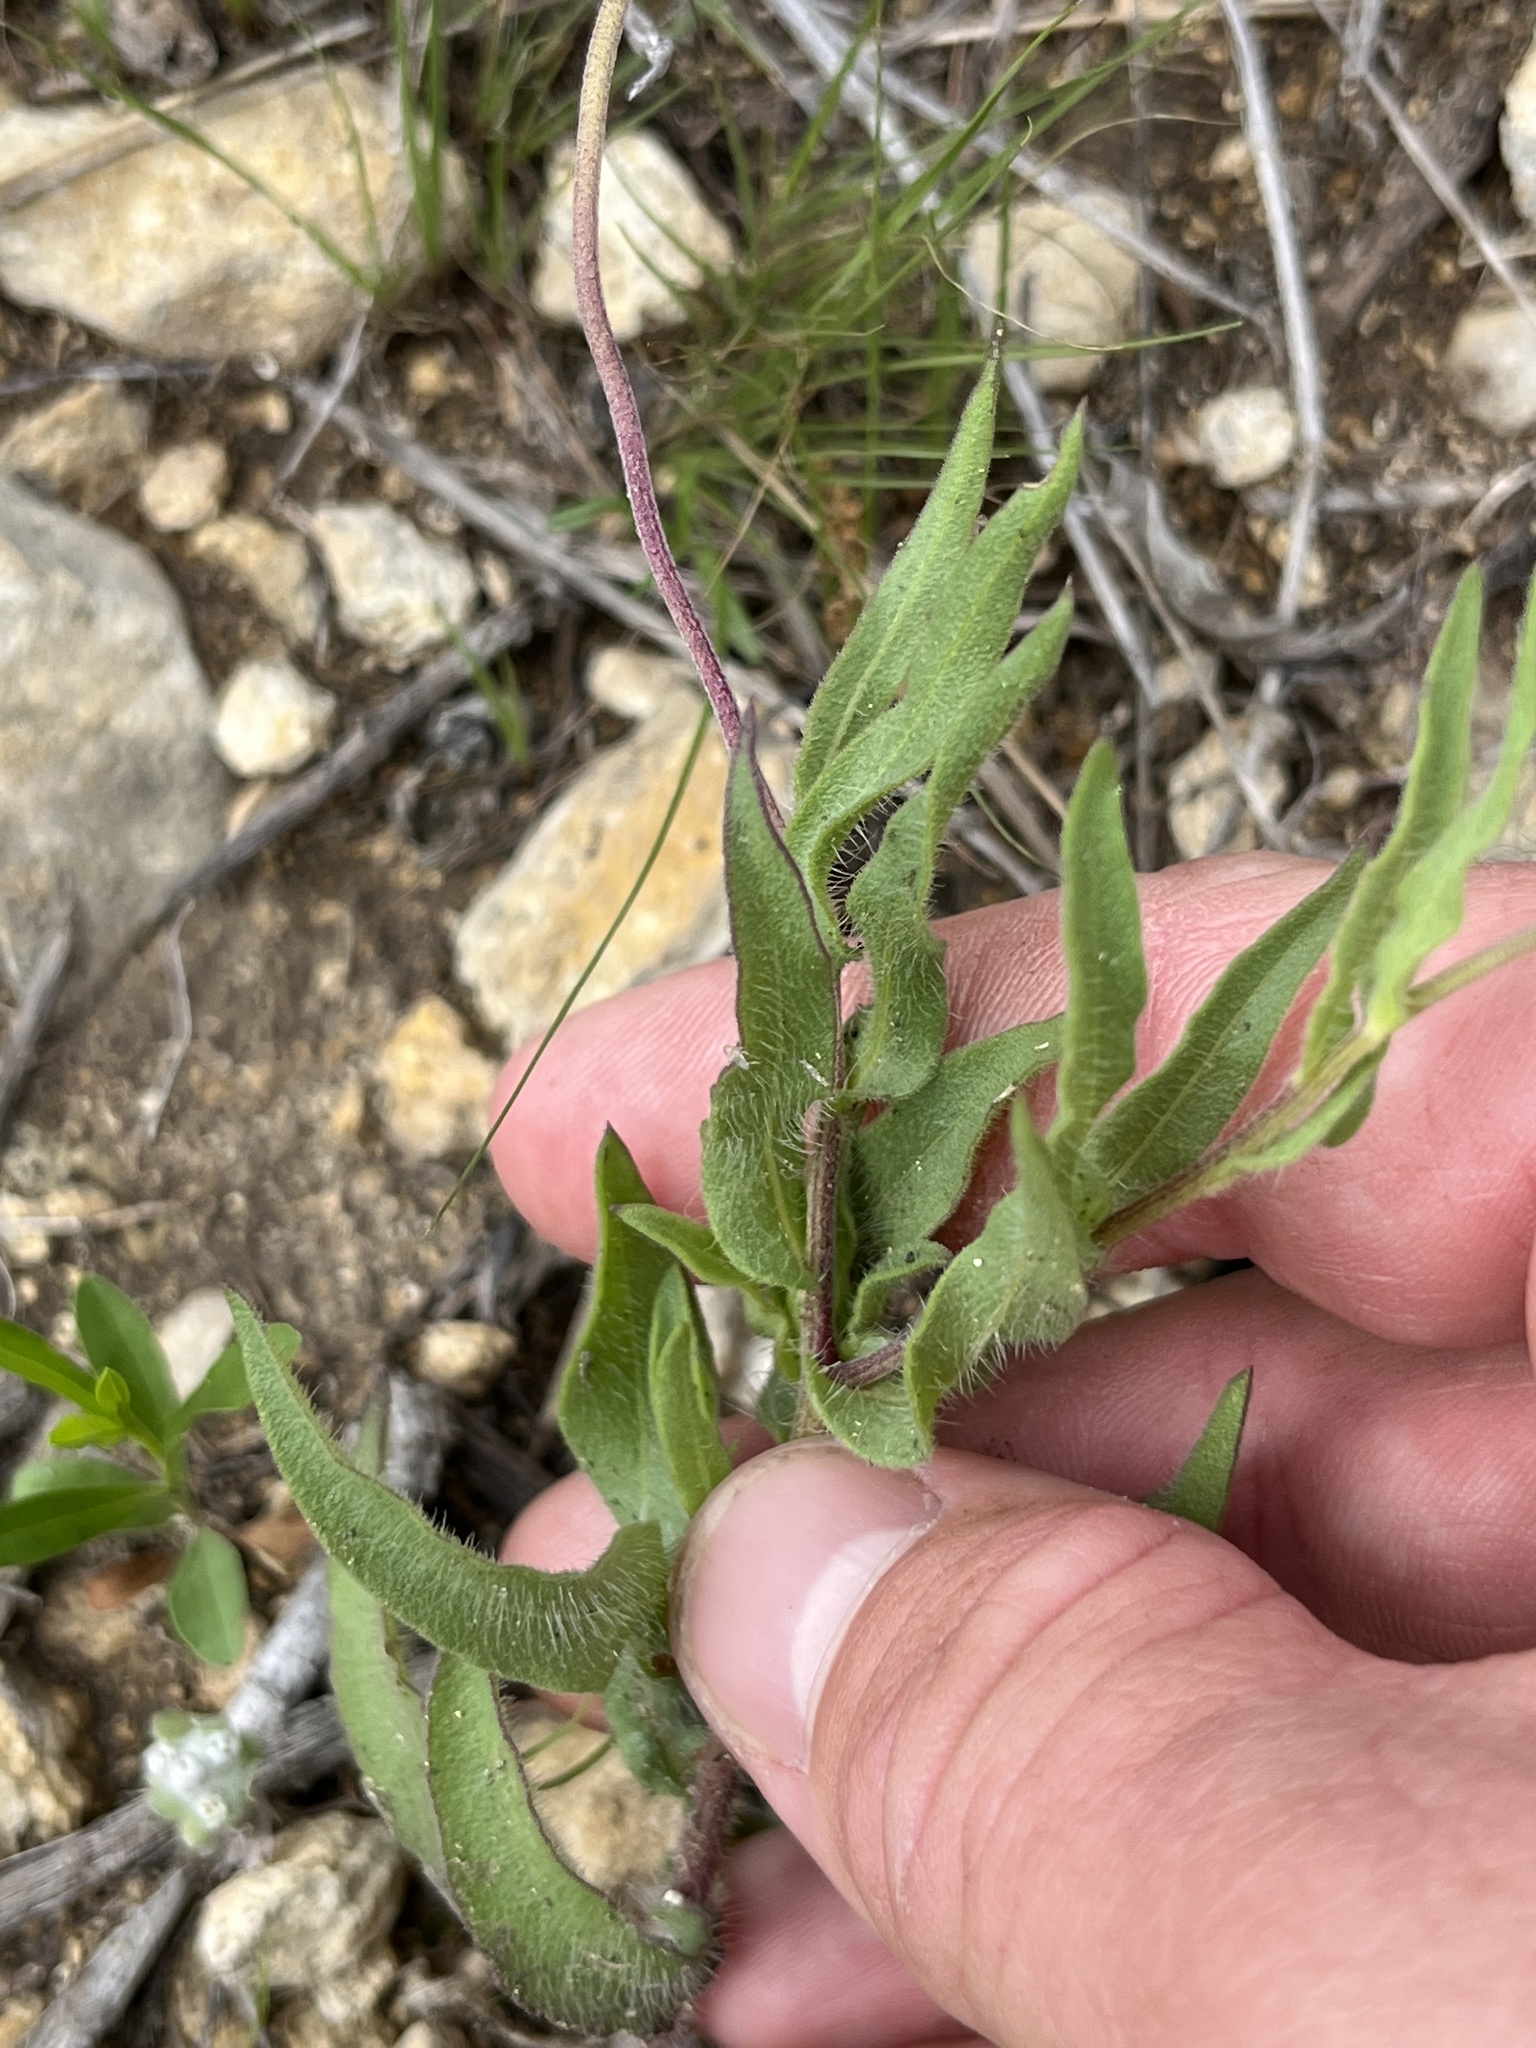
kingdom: Plantae
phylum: Tracheophyta
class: Magnoliopsida
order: Asterales
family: Asteraceae
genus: Gaillardia
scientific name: Gaillardia pulchella
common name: Firewheel
